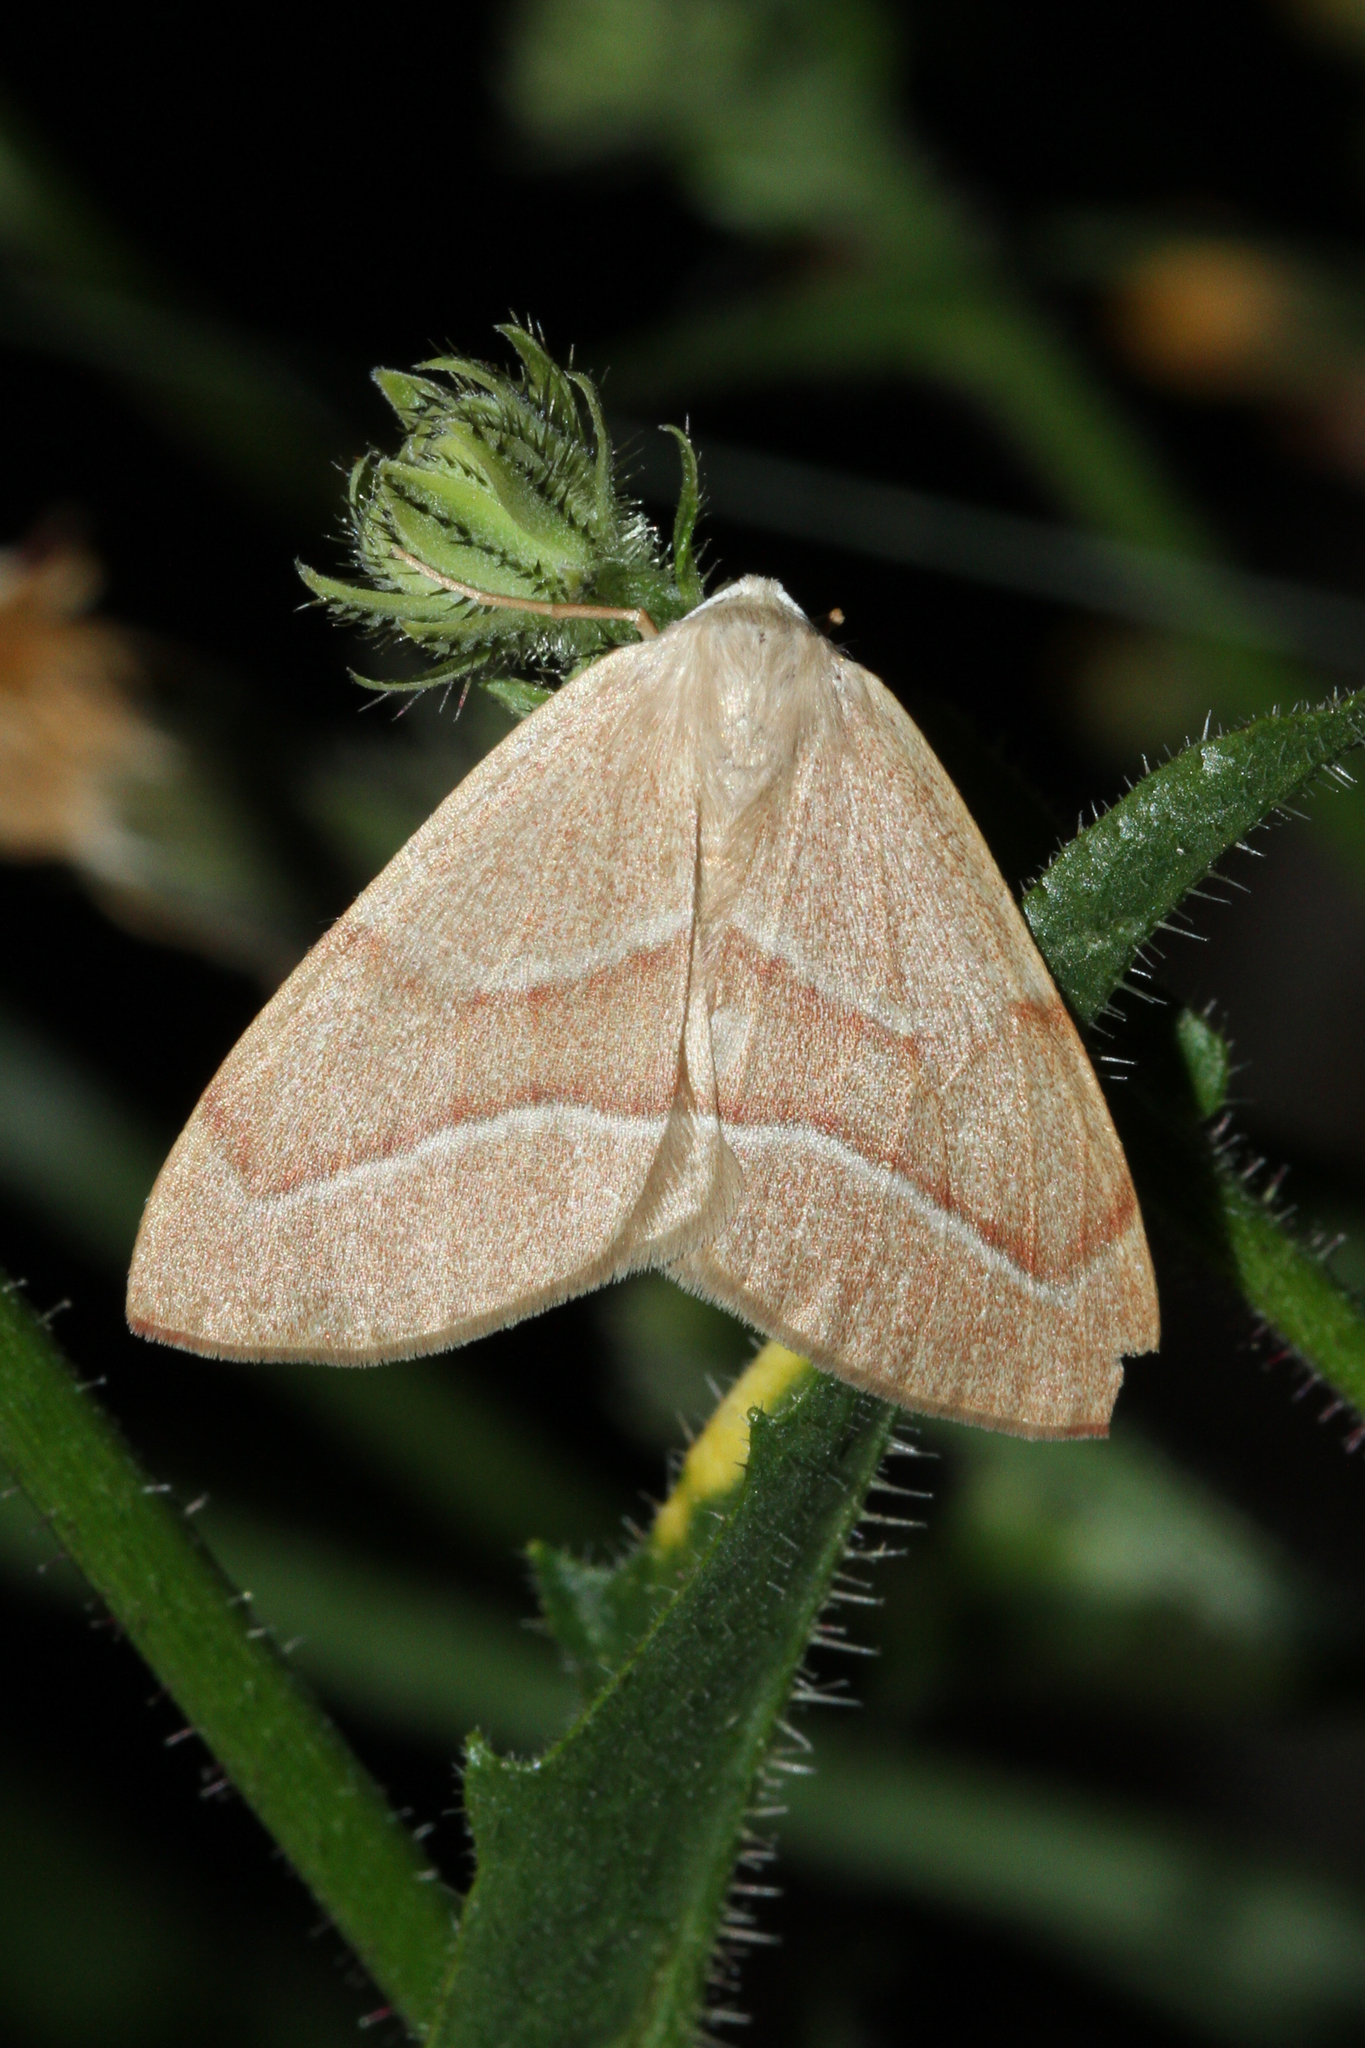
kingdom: Animalia
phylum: Arthropoda
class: Insecta
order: Lepidoptera
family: Geometridae
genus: Hylaea
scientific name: Hylaea fasciaria
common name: Barred red
